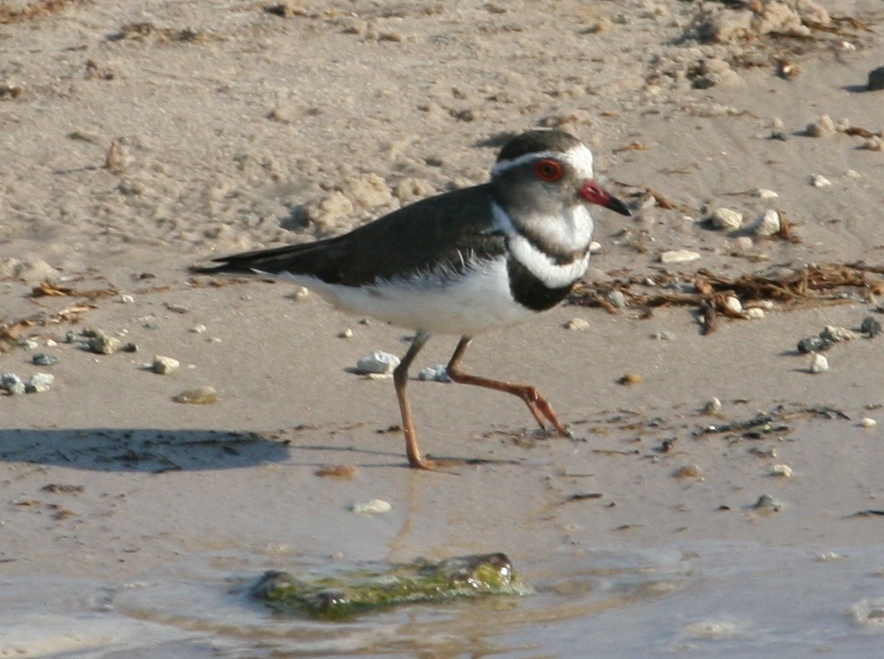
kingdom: Animalia
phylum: Chordata
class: Aves
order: Charadriiformes
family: Charadriidae
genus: Charadrius
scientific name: Charadrius tricollaris
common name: Three-banded plover
